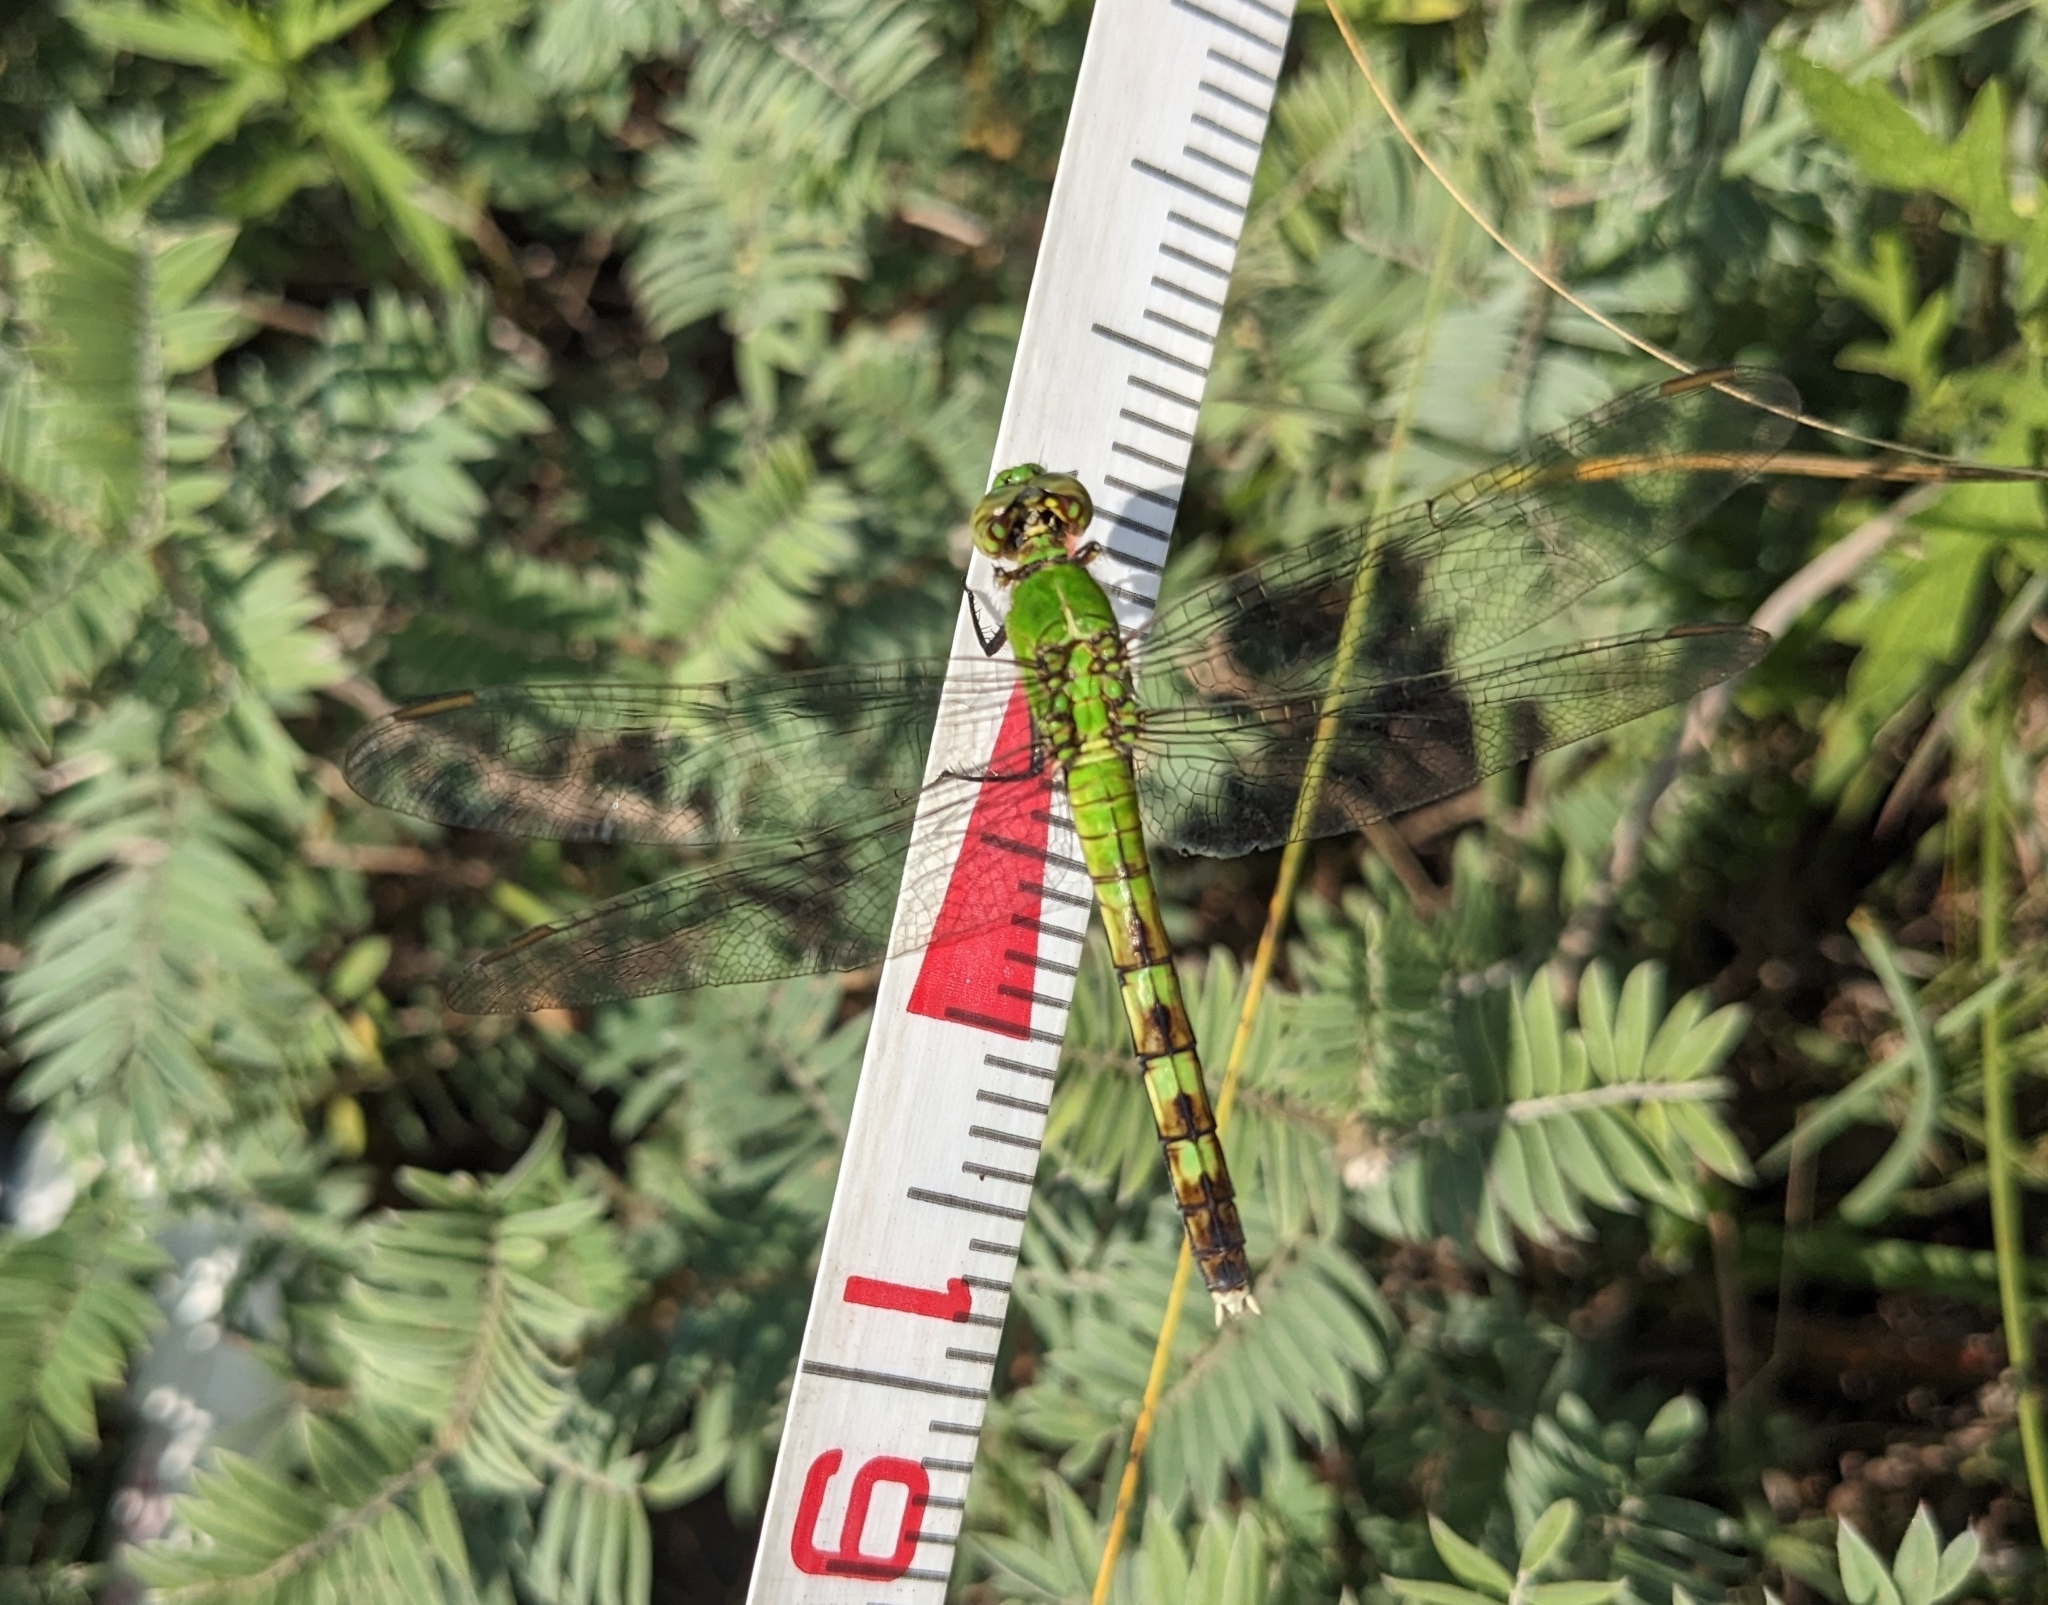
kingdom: Animalia
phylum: Arthropoda
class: Insecta
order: Odonata
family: Libellulidae
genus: Erythemis
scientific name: Erythemis simplicicollis
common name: Eastern pondhawk
